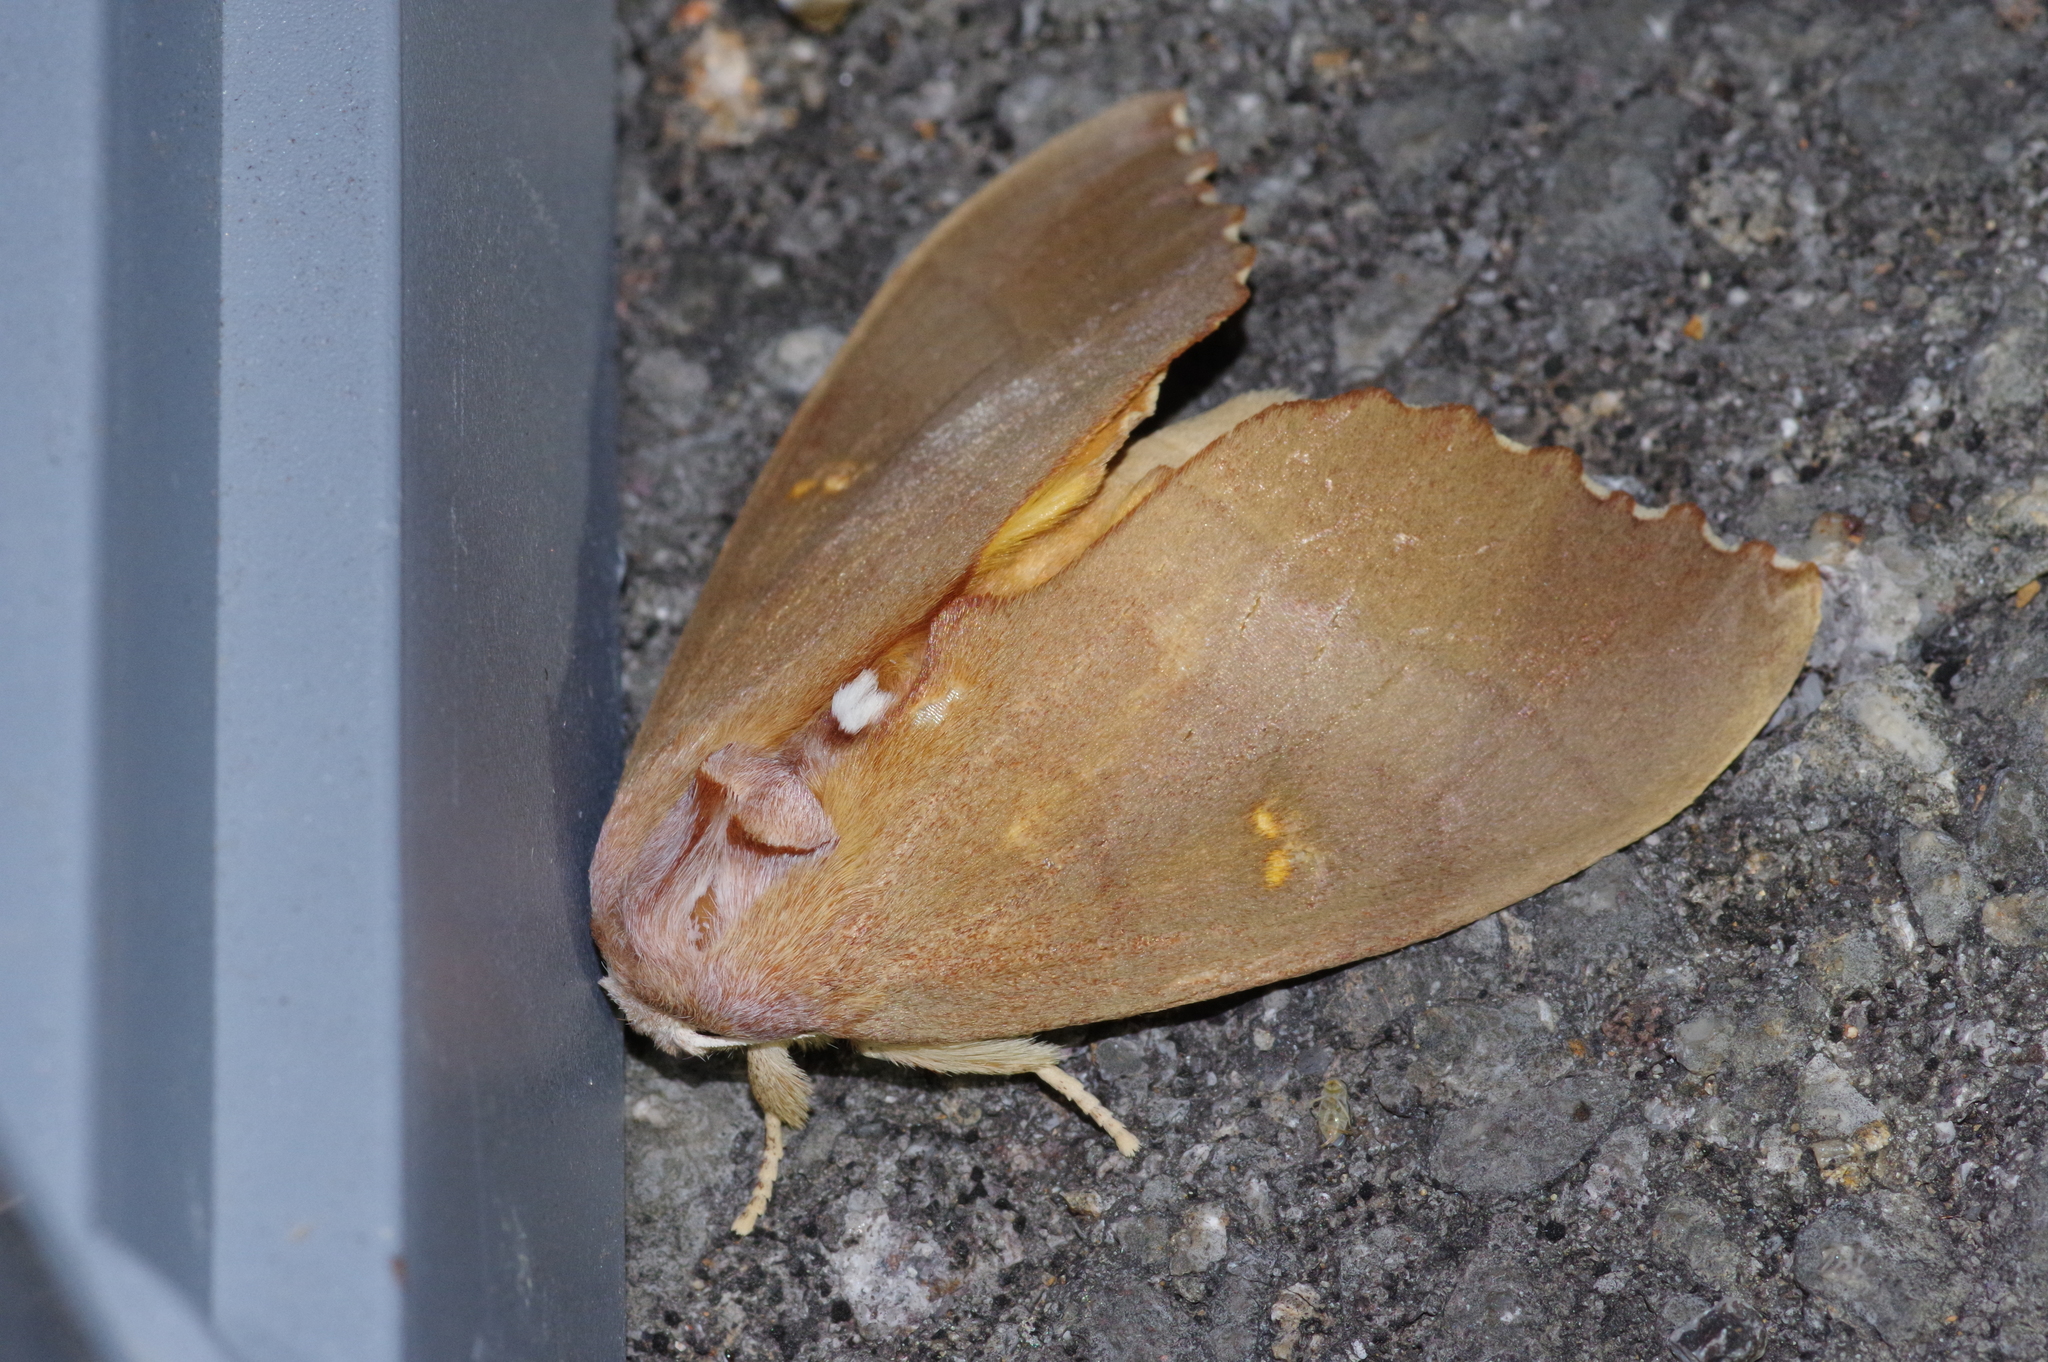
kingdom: Animalia
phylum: Arthropoda
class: Insecta
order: Lepidoptera
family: Notodontidae
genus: Euhampsonia
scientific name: Euhampsonia cristata
